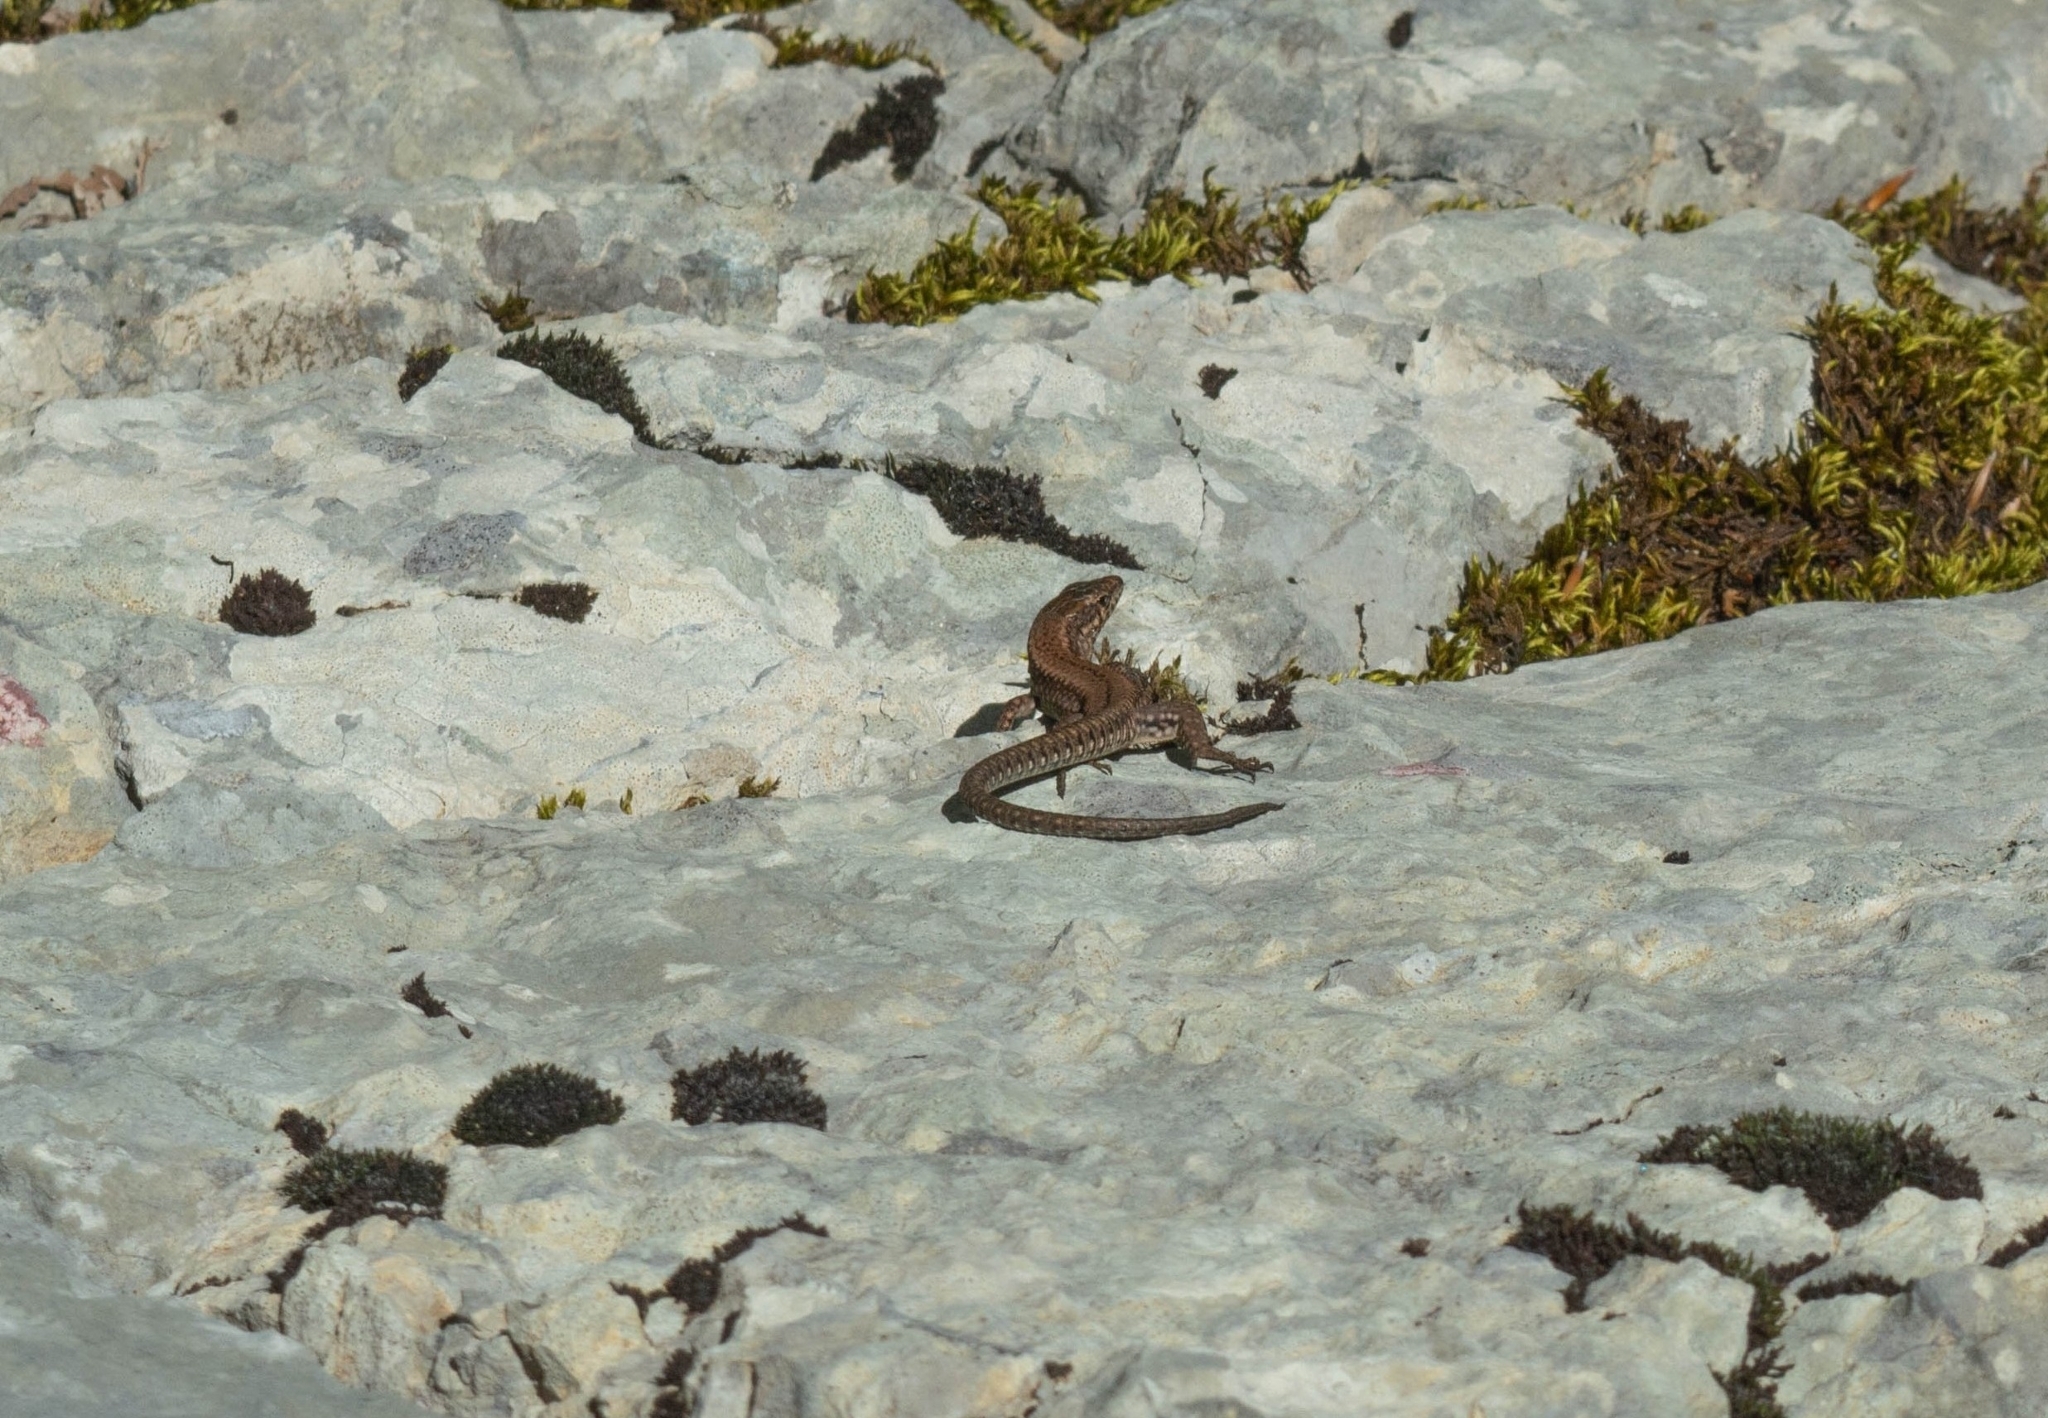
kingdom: Animalia
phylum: Chordata
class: Squamata
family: Lacertidae
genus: Podarcis
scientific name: Podarcis muralis
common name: Common wall lizard
